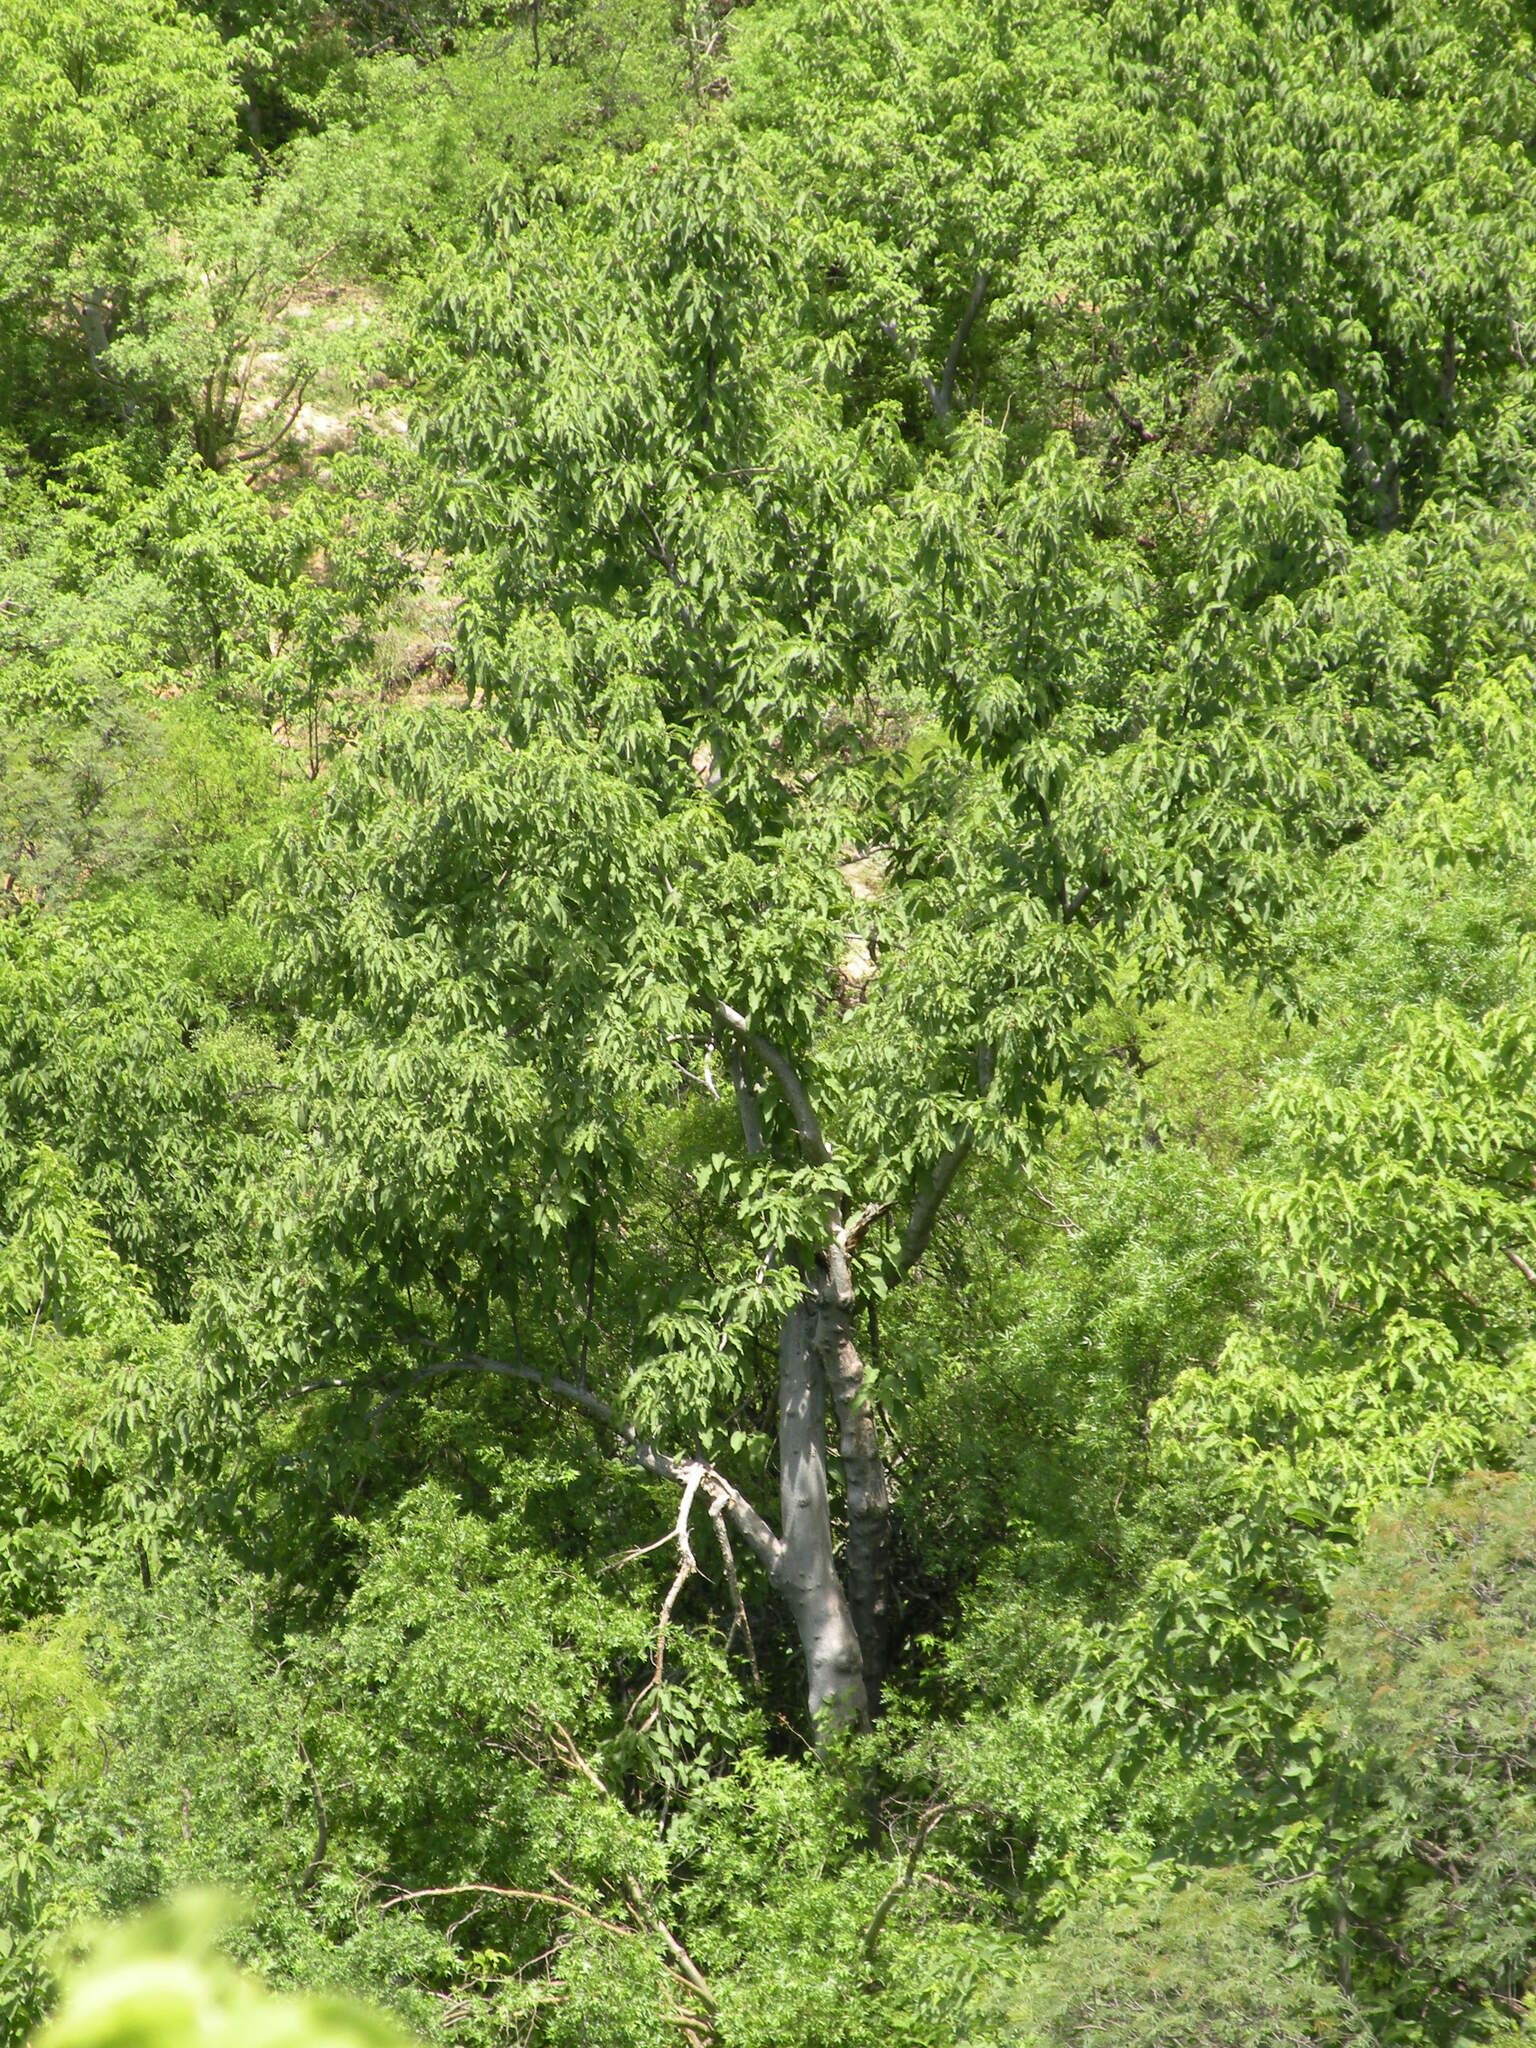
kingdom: Plantae
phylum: Tracheophyta
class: Magnoliopsida
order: Solanales
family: Convolvulaceae
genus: Ipomoea
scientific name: Ipomoea arborescens
